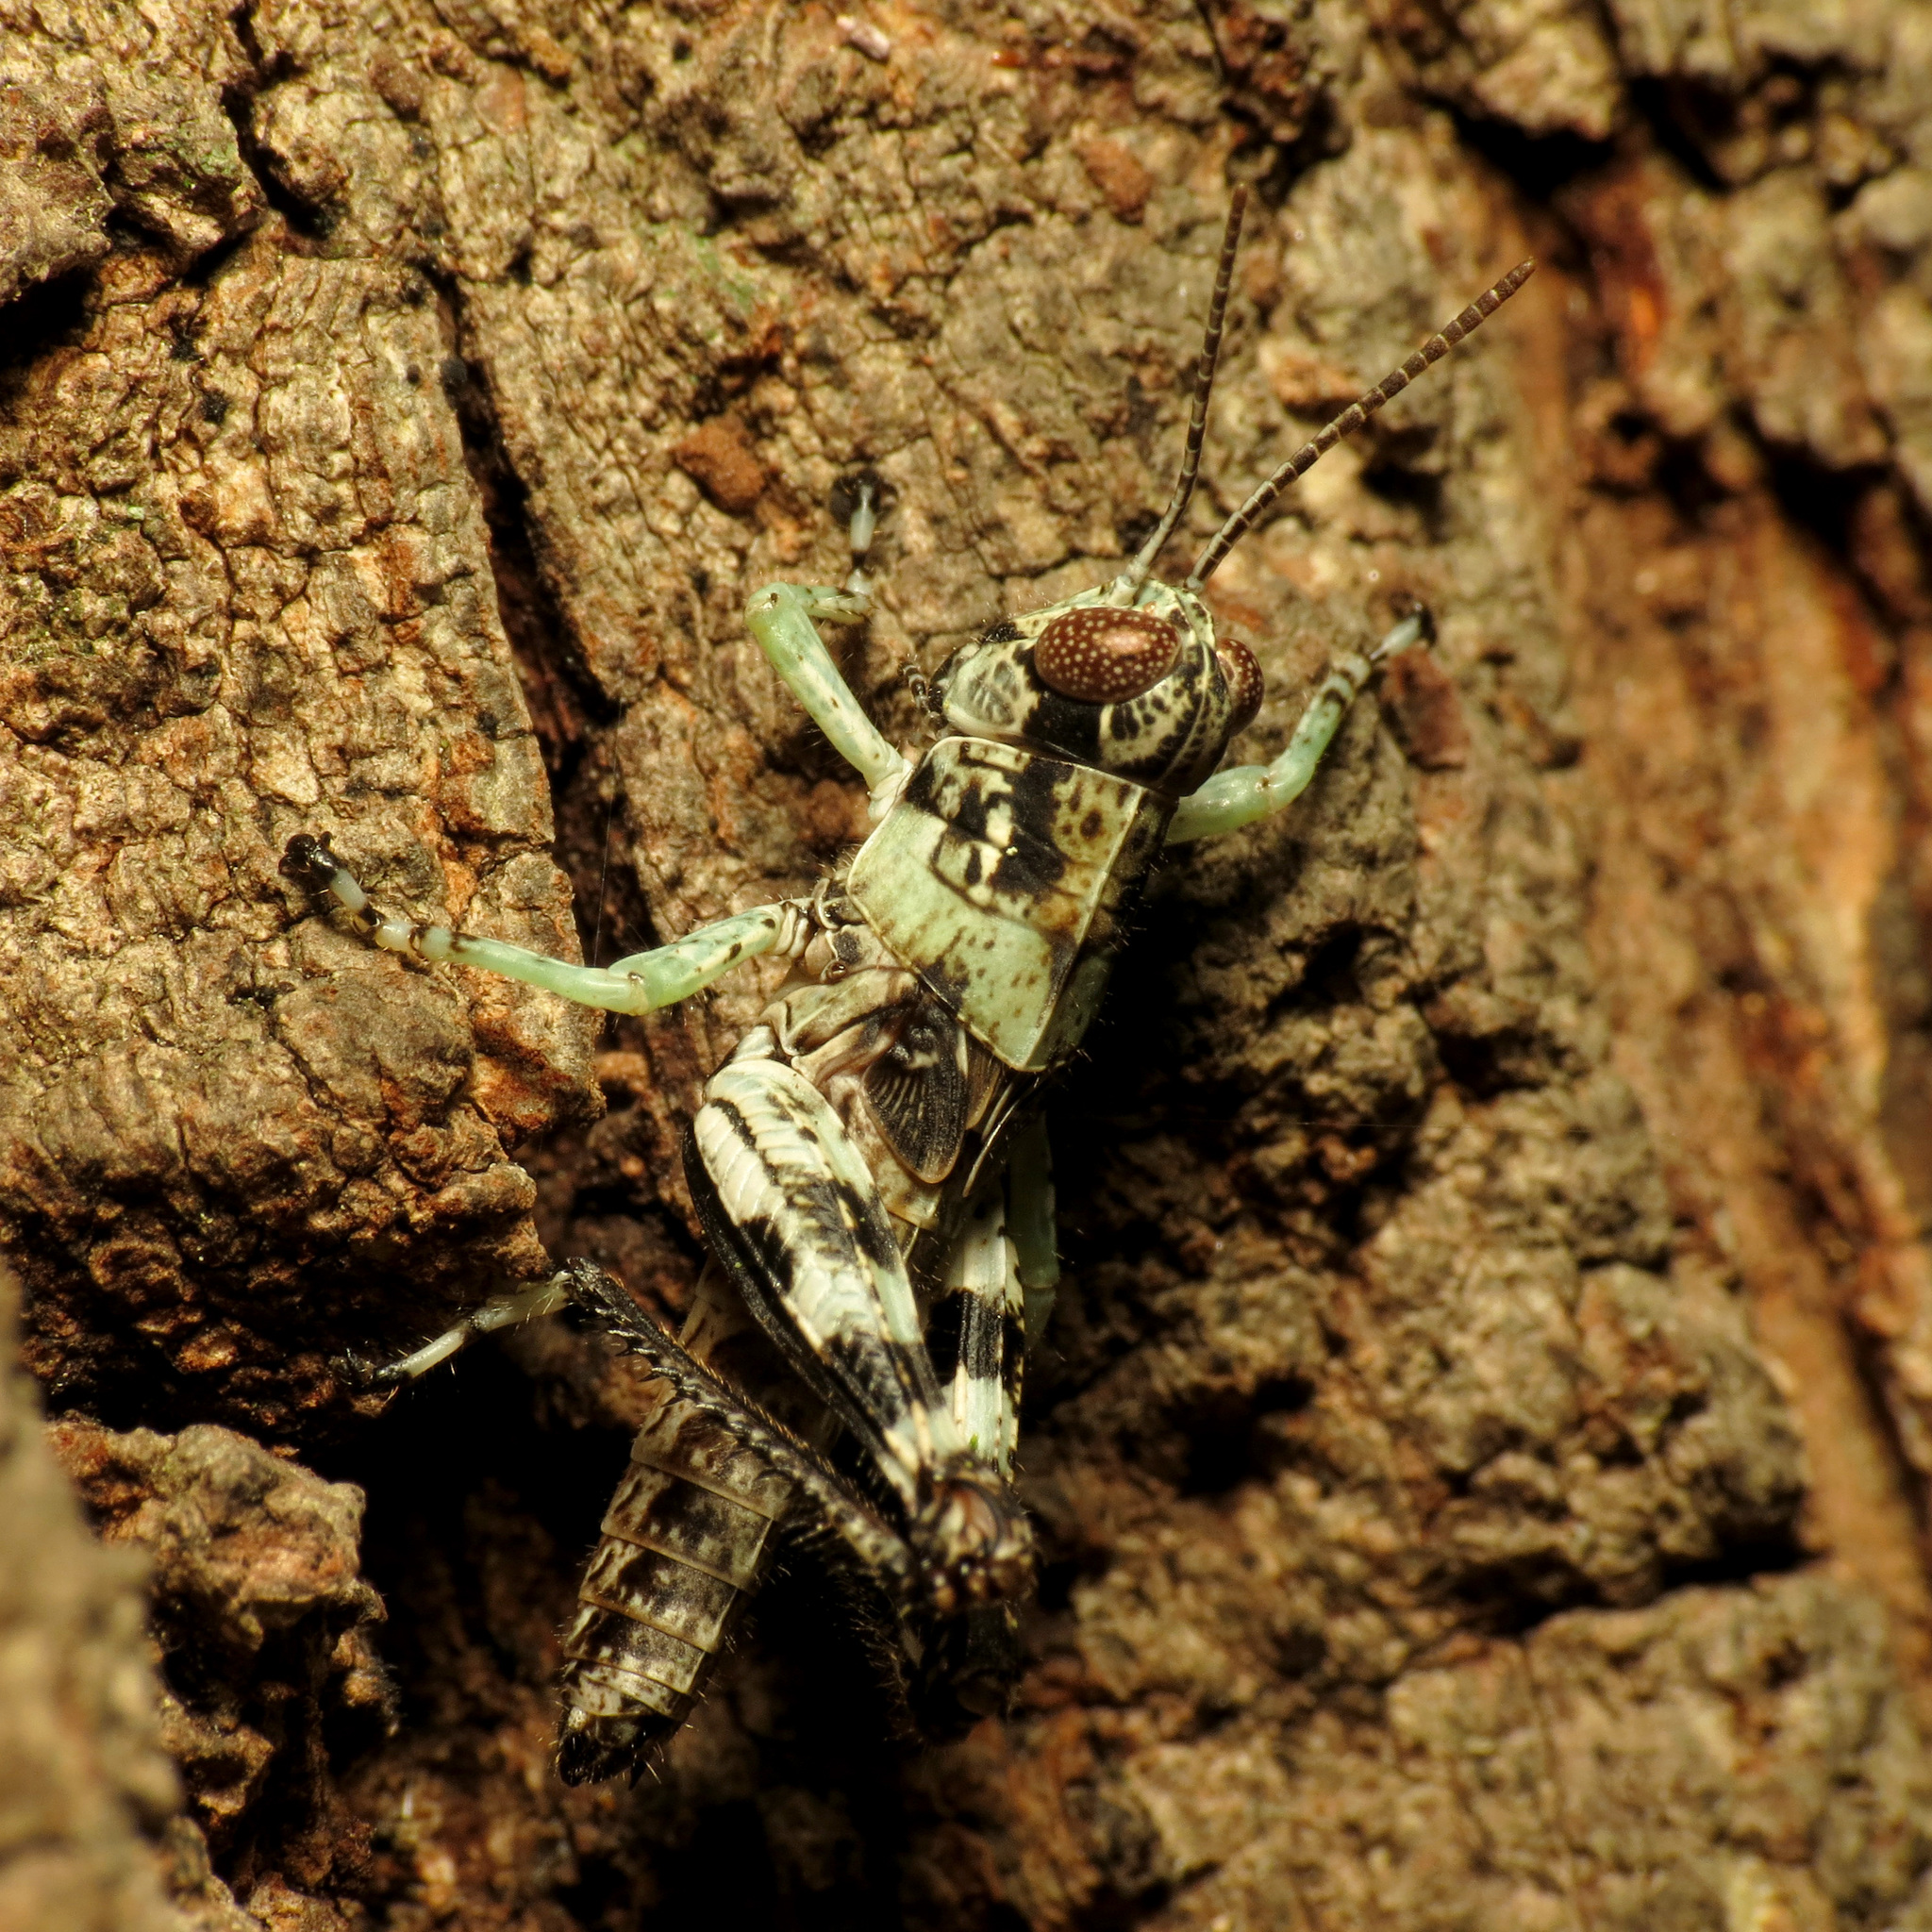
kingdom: Animalia
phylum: Arthropoda
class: Insecta
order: Orthoptera
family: Acrididae
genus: Melanoplus
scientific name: Melanoplus punctulatus
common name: Pine-tree spur-throat grasshopper
